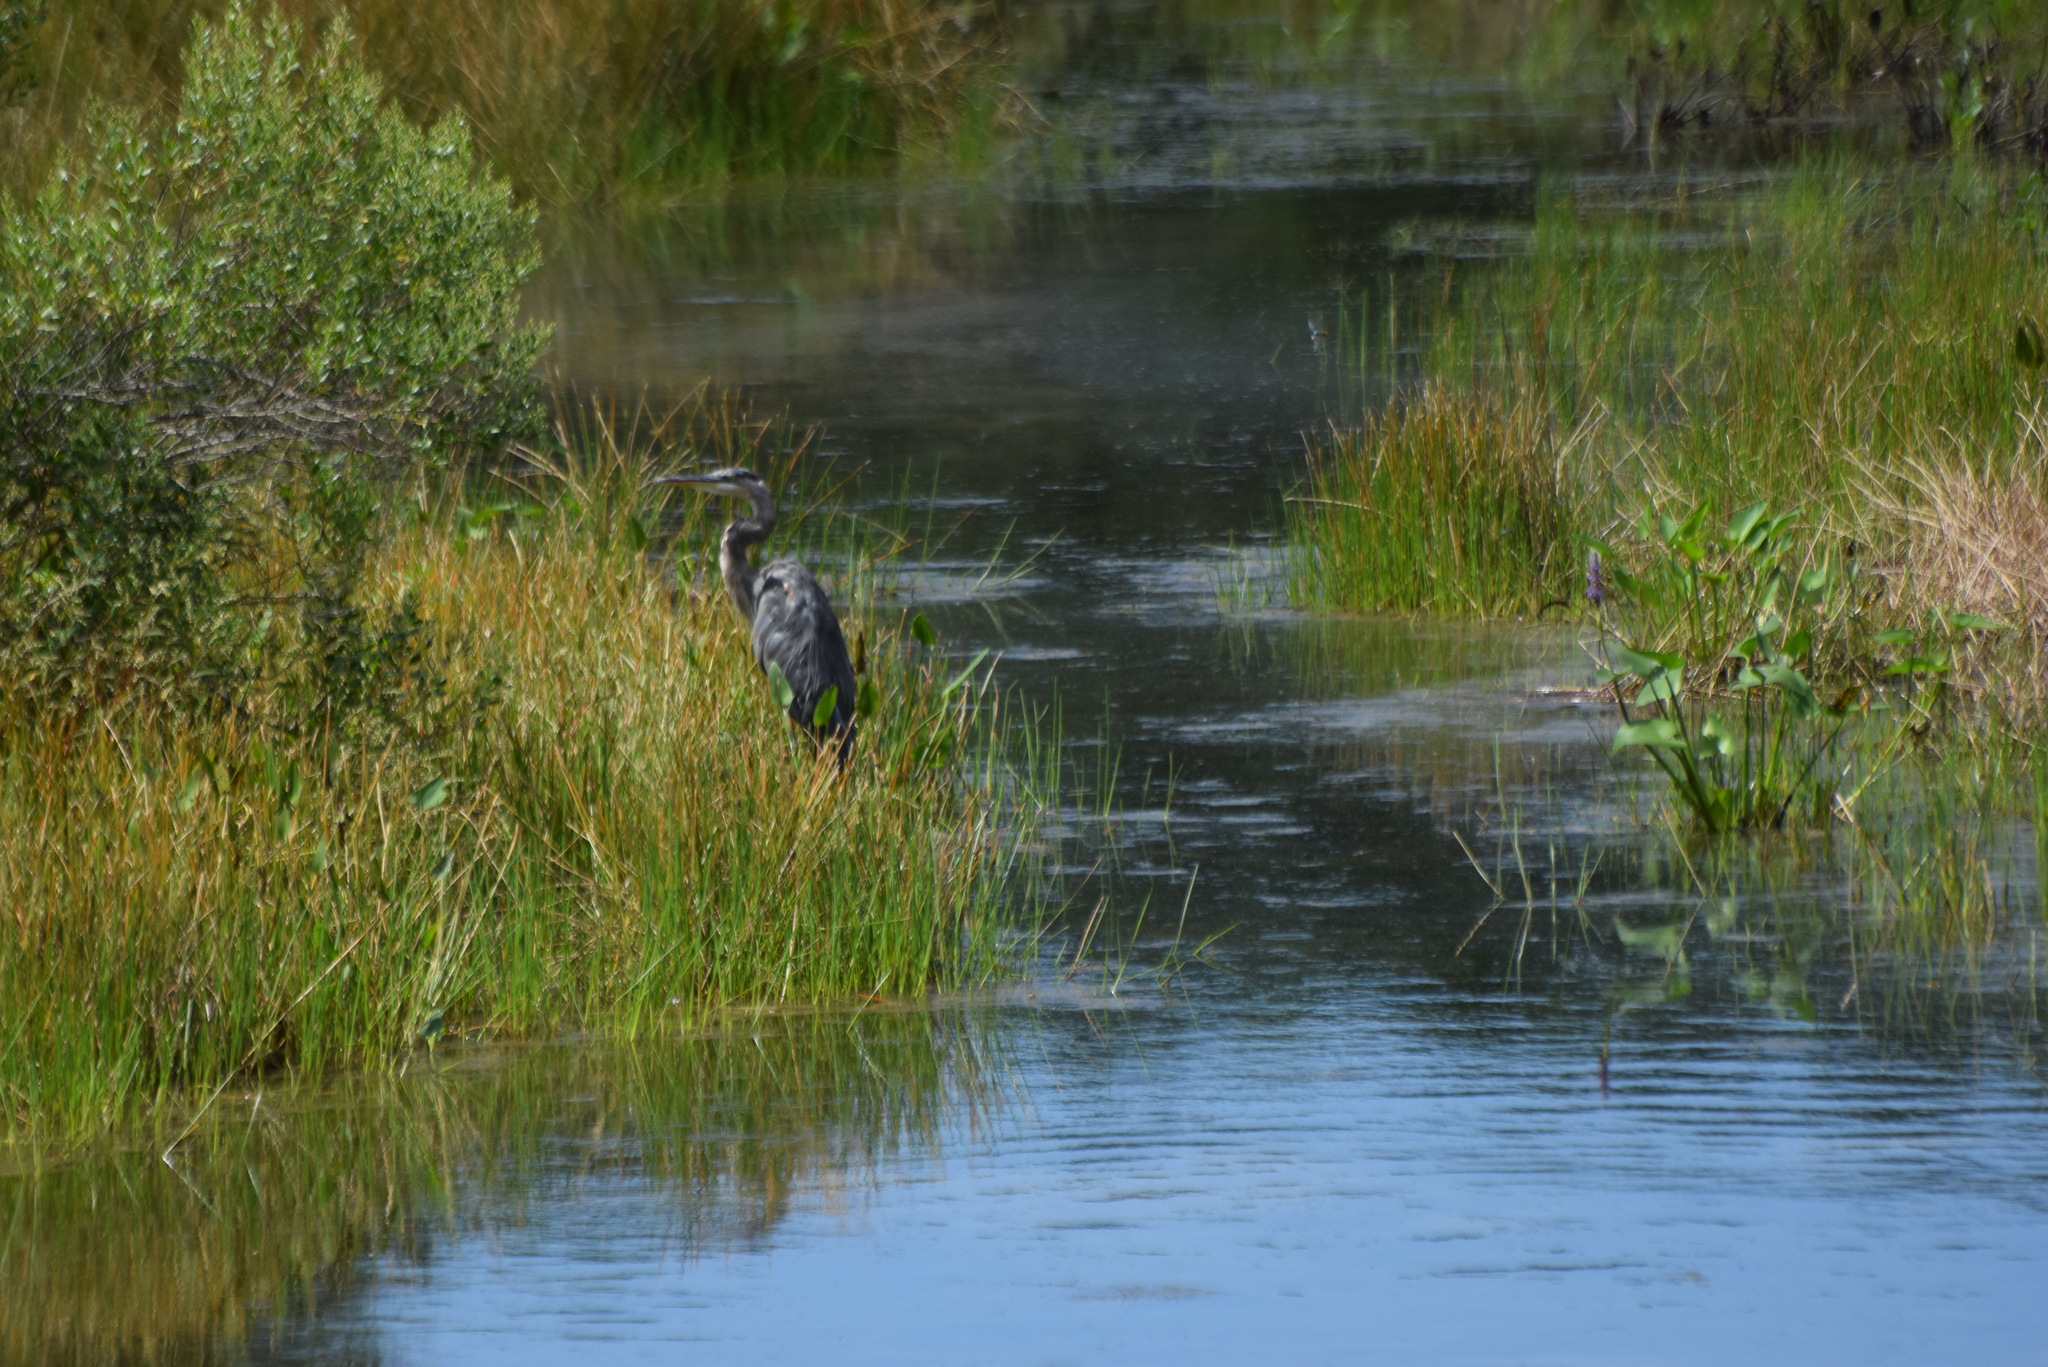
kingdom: Animalia
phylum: Chordata
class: Aves
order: Pelecaniformes
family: Ardeidae
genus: Ardea
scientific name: Ardea herodias
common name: Great blue heron
